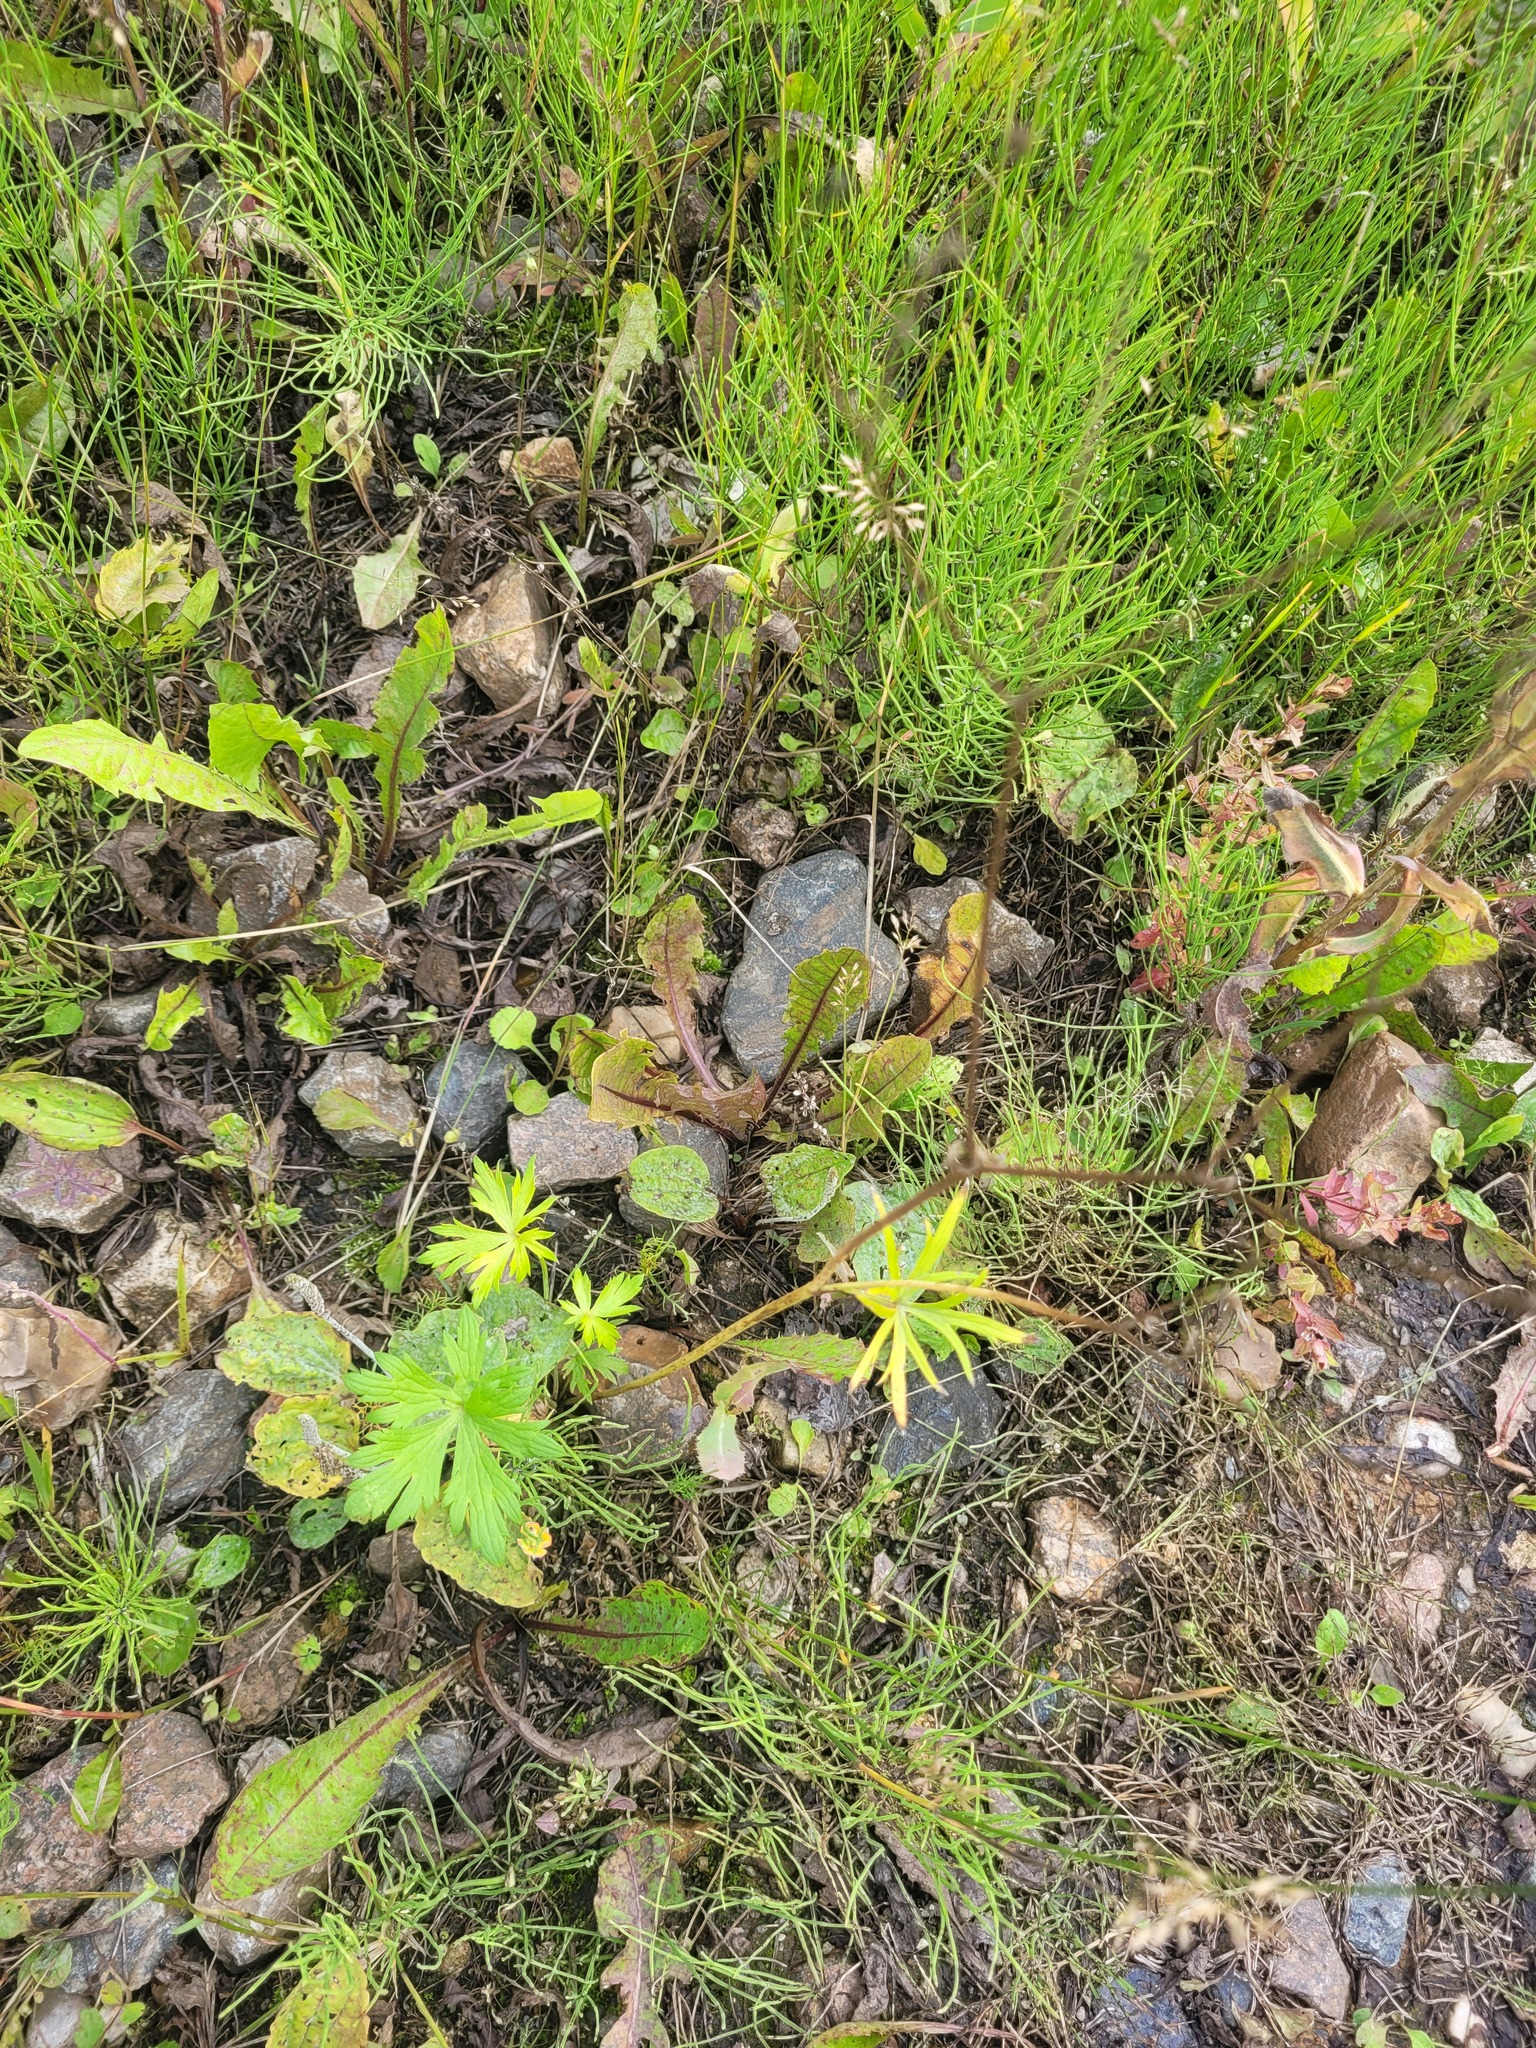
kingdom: Plantae
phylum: Tracheophyta
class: Magnoliopsida
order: Ranunculales
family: Ranunculaceae
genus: Ranunculus
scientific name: Ranunculus acris
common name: Meadow buttercup
